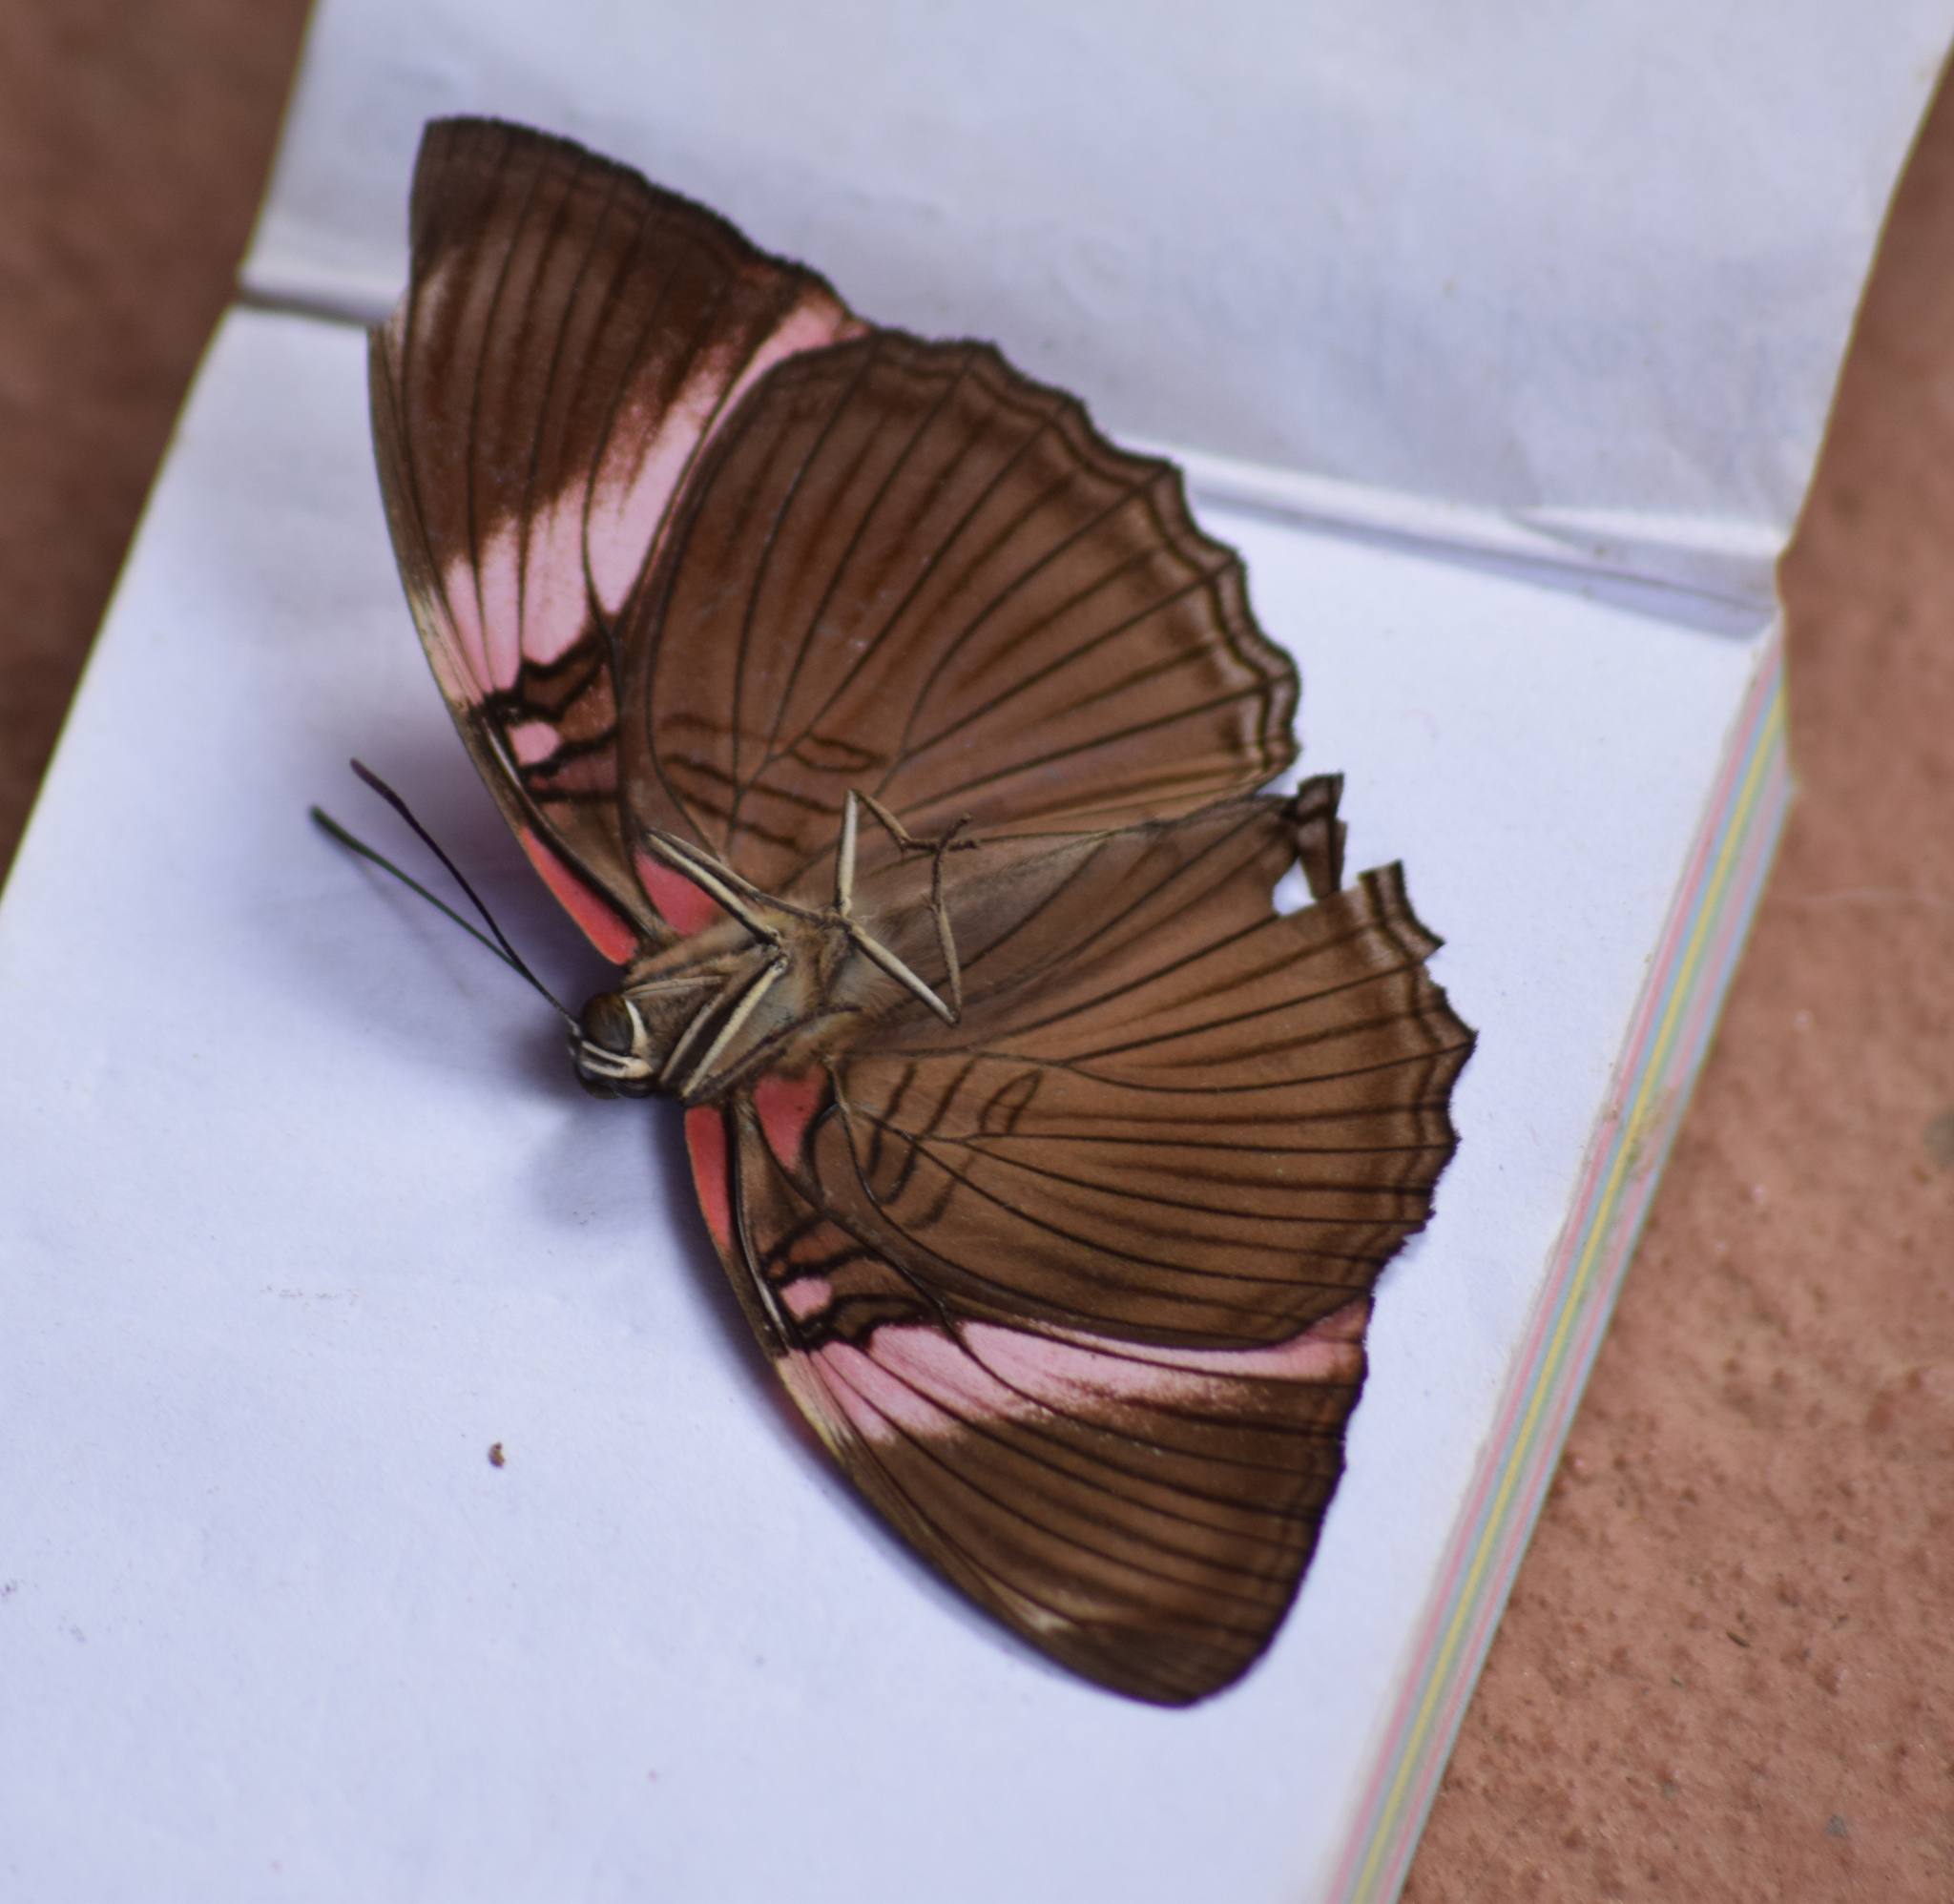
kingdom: Animalia
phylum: Arthropoda
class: Insecta
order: Lepidoptera
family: Nymphalidae
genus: Limenitis
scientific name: Limenitis isis
